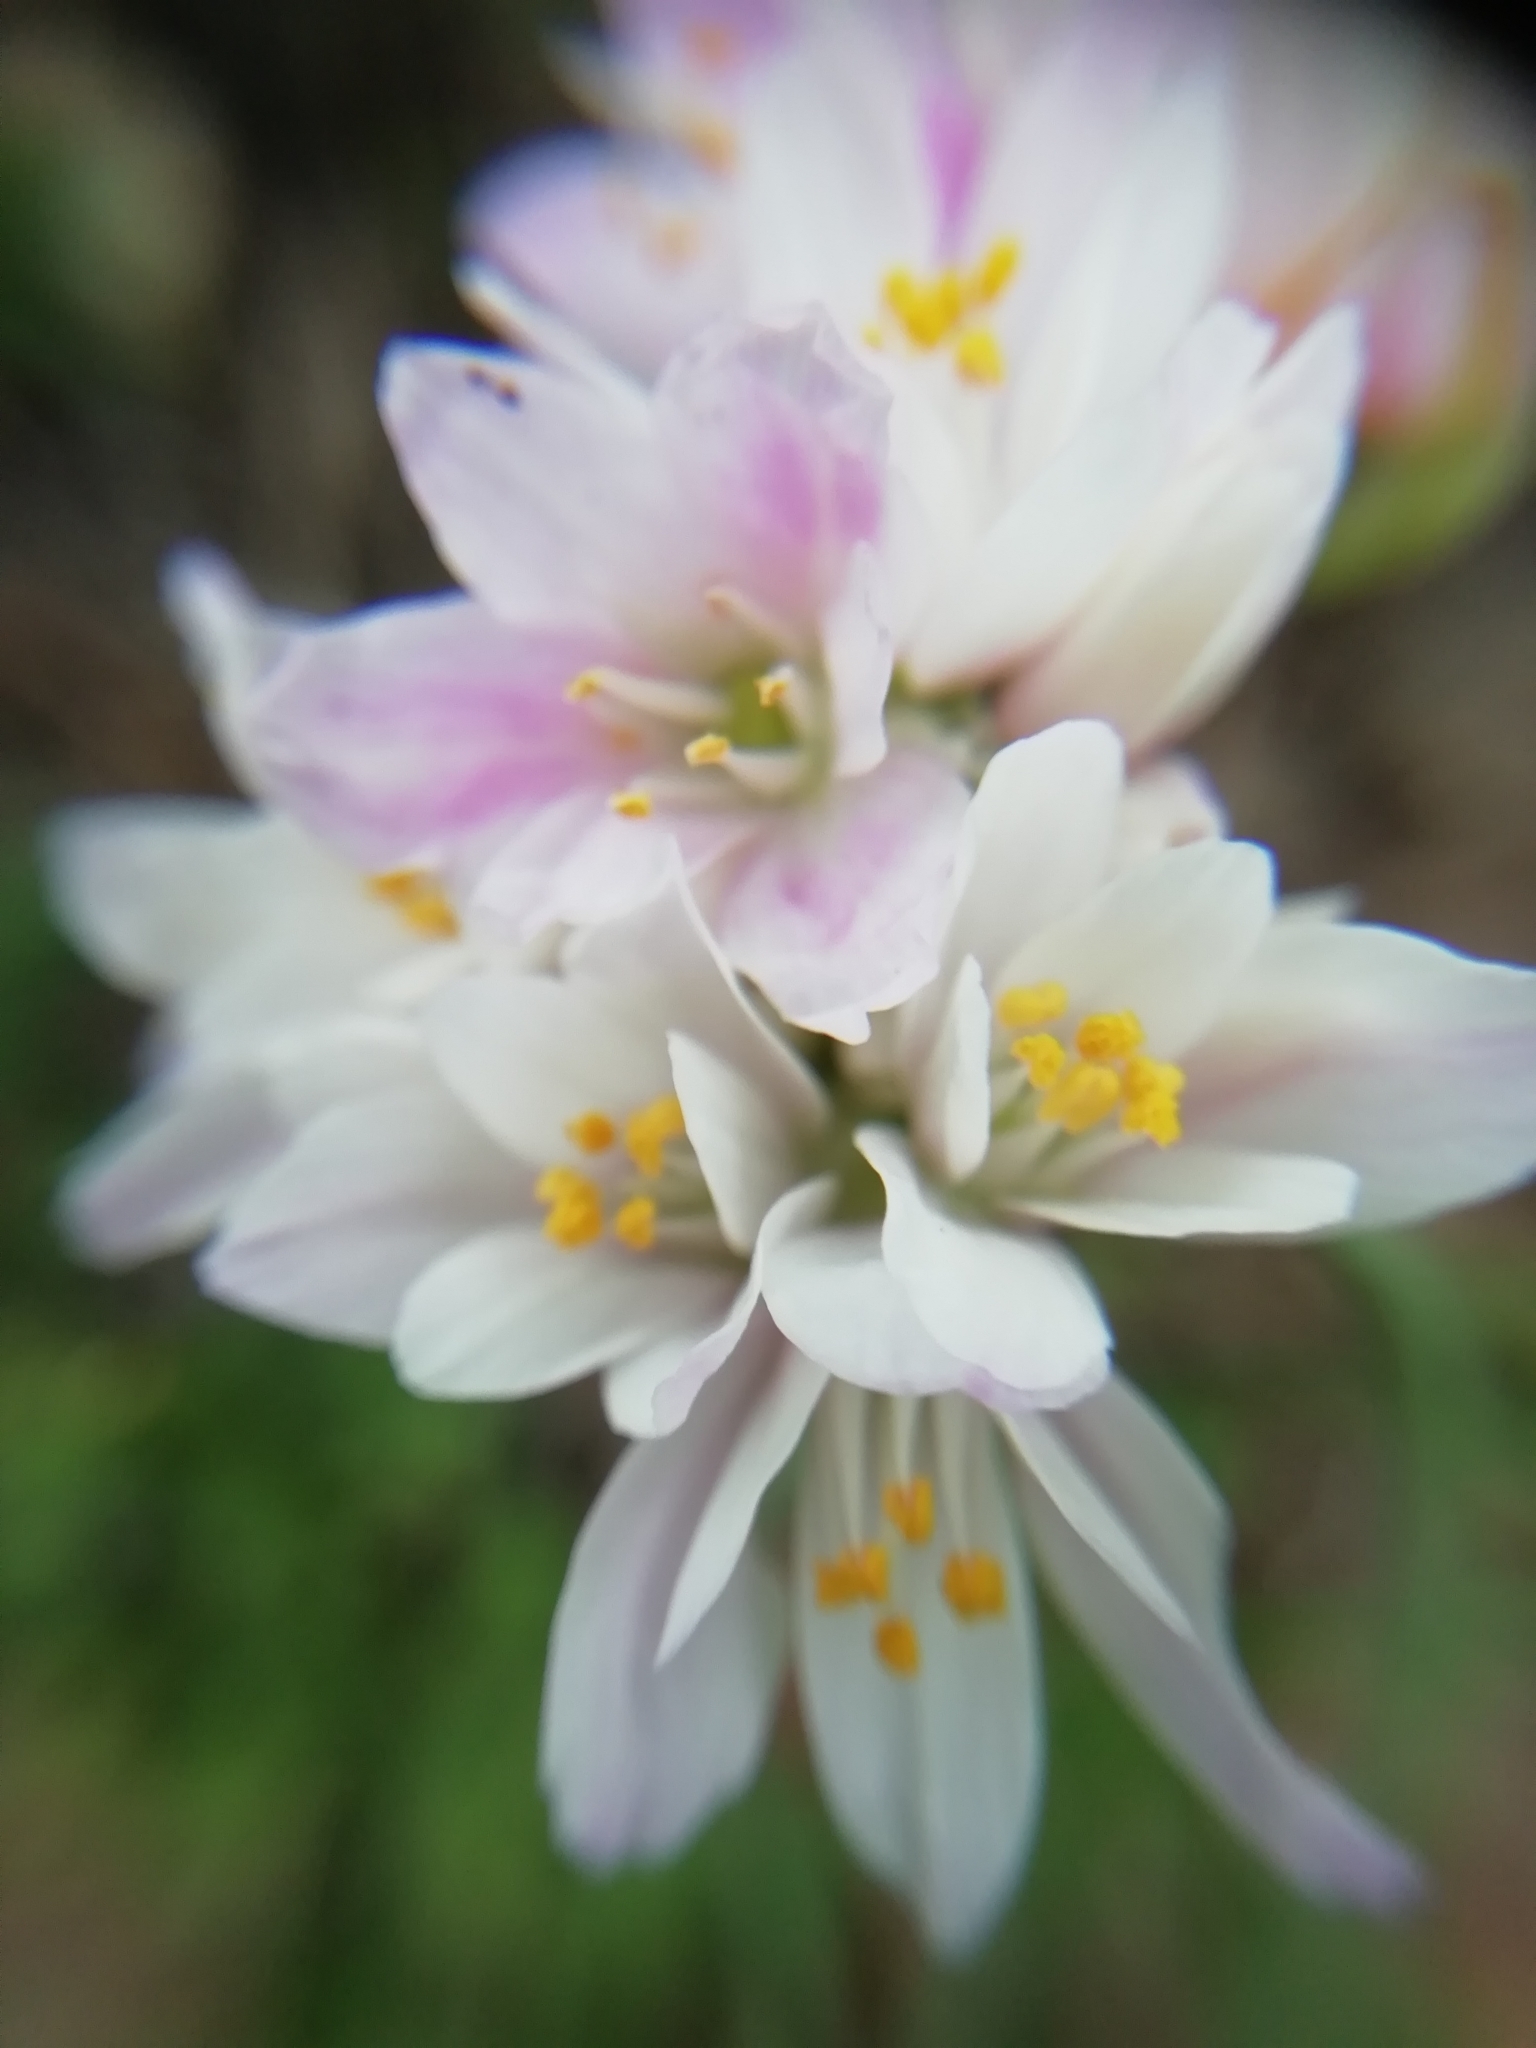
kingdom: Plantae
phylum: Tracheophyta
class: Liliopsida
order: Asparagales
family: Amaryllidaceae
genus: Allium
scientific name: Allium roseum
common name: Rosy garlic
